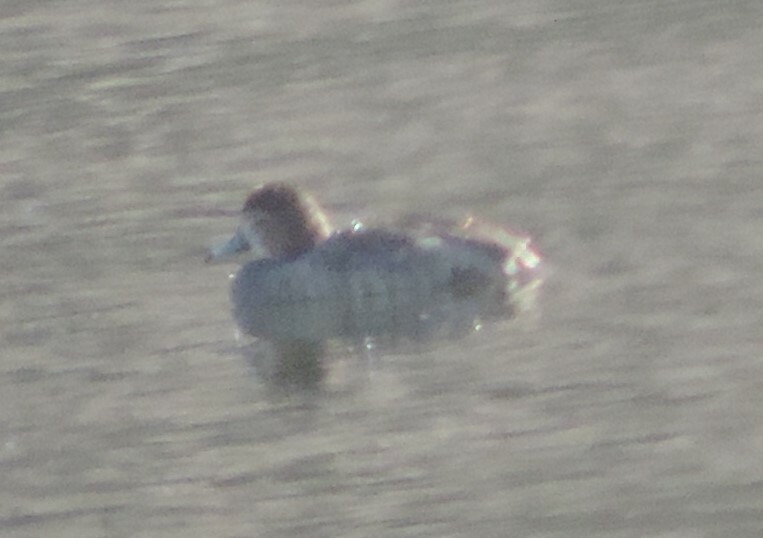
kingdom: Animalia
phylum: Chordata
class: Aves
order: Anseriformes
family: Anatidae
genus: Aythya
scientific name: Aythya americana
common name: Redhead
